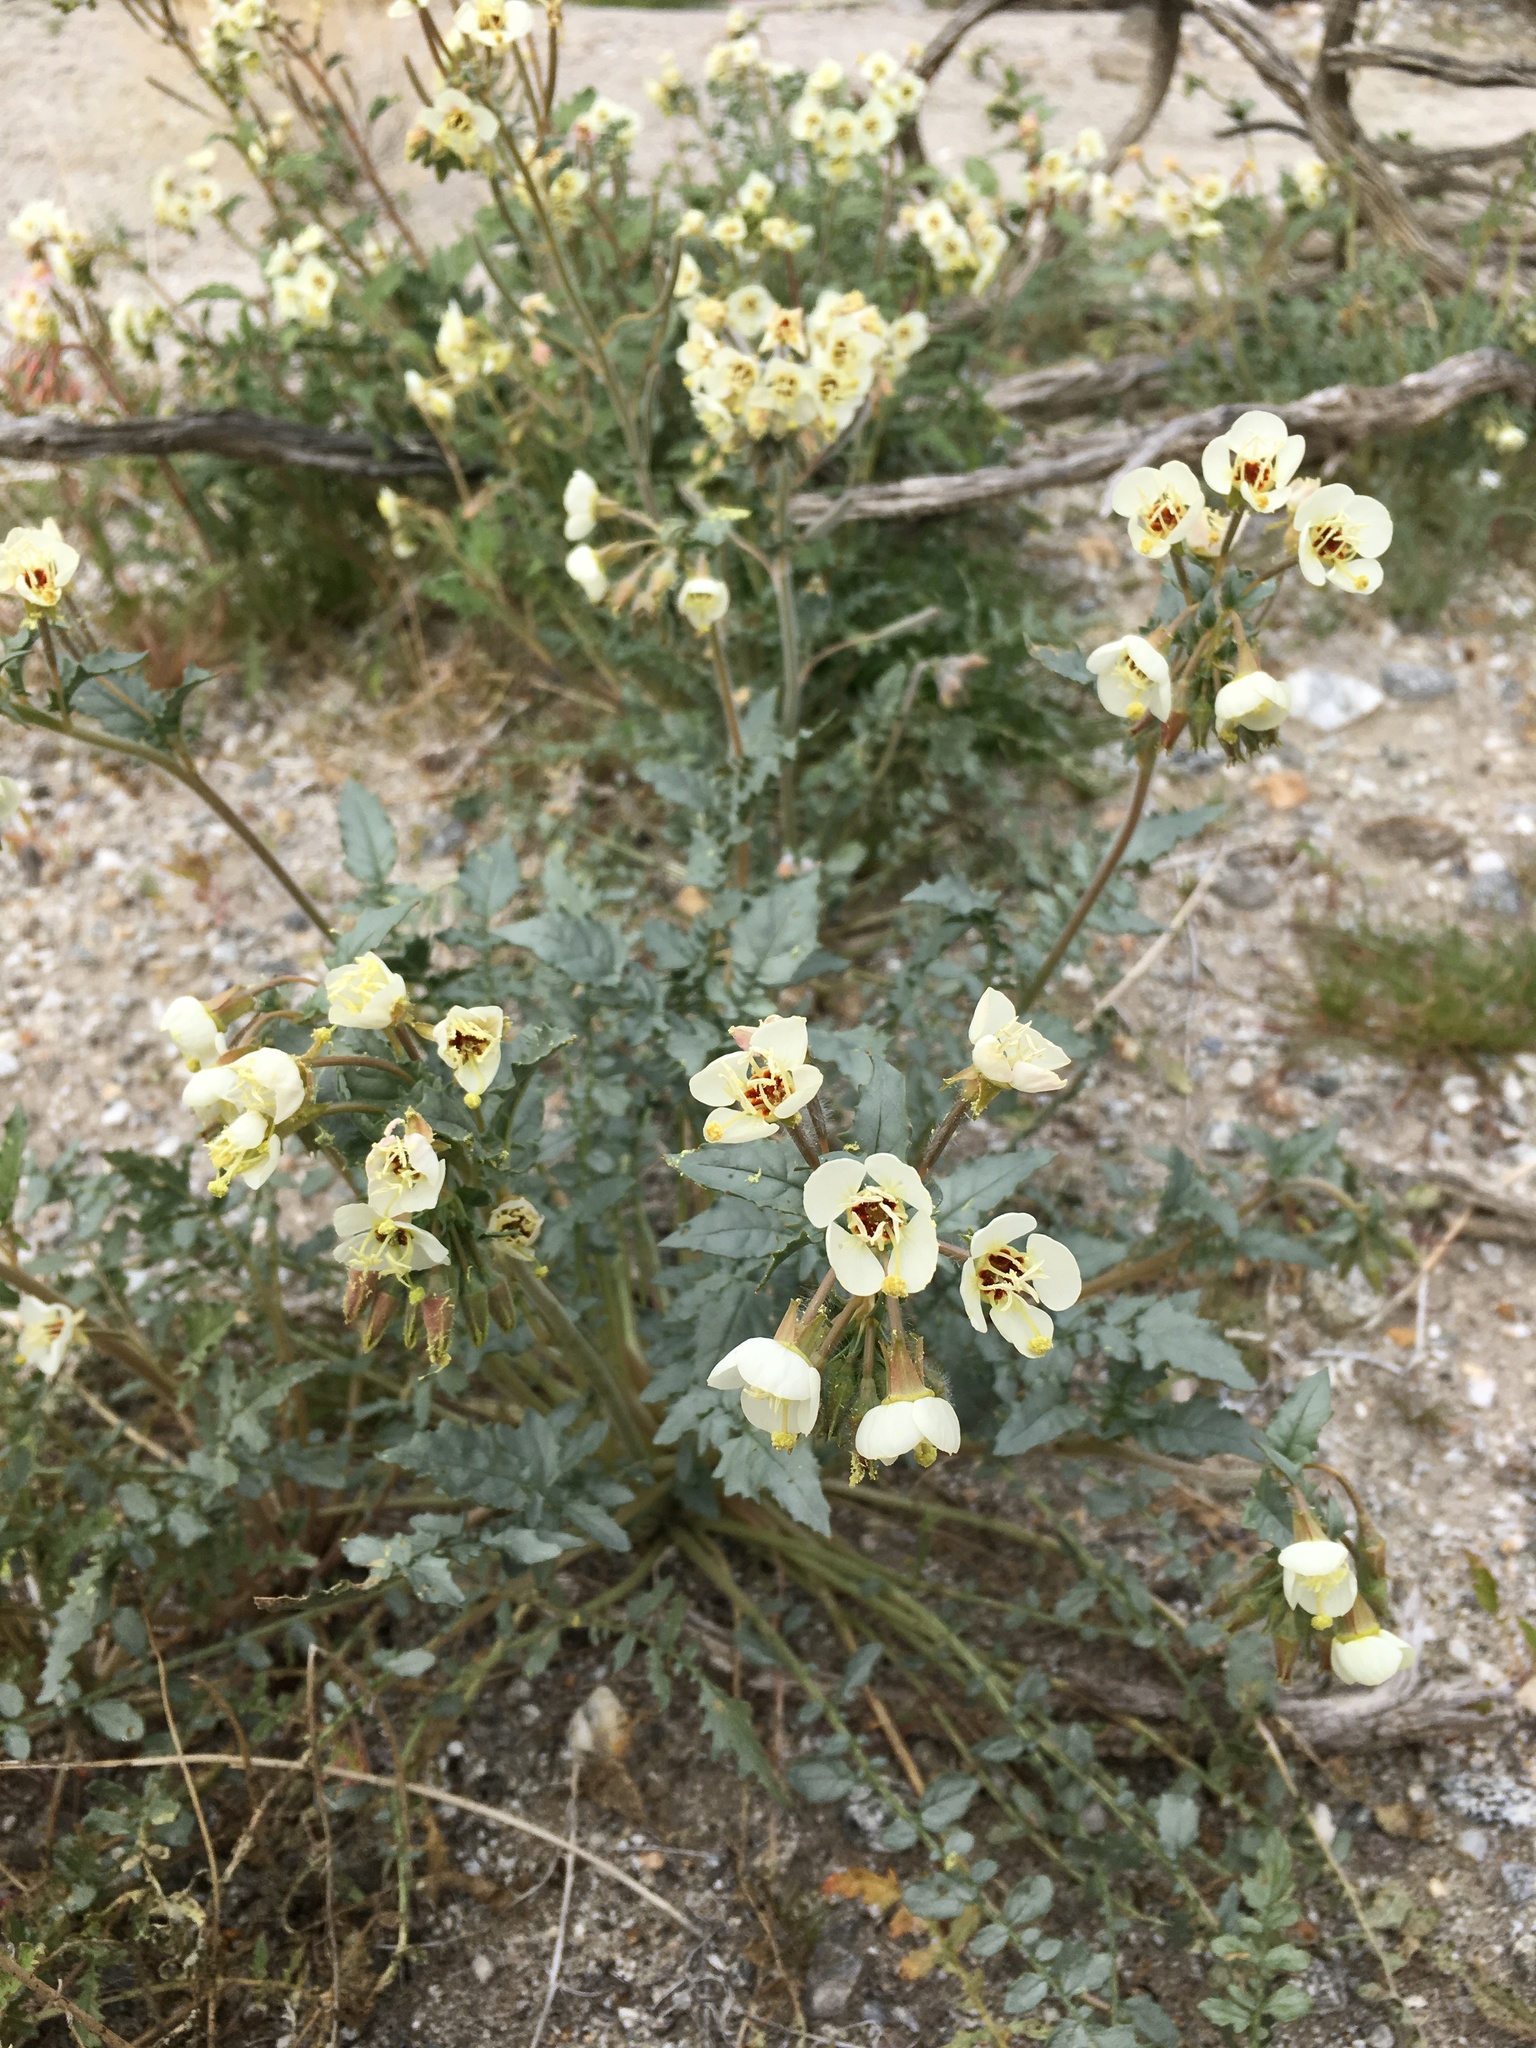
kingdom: Plantae
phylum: Tracheophyta
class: Magnoliopsida
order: Myrtales
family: Onagraceae
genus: Chylismia
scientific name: Chylismia claviformis
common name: Browneyes
